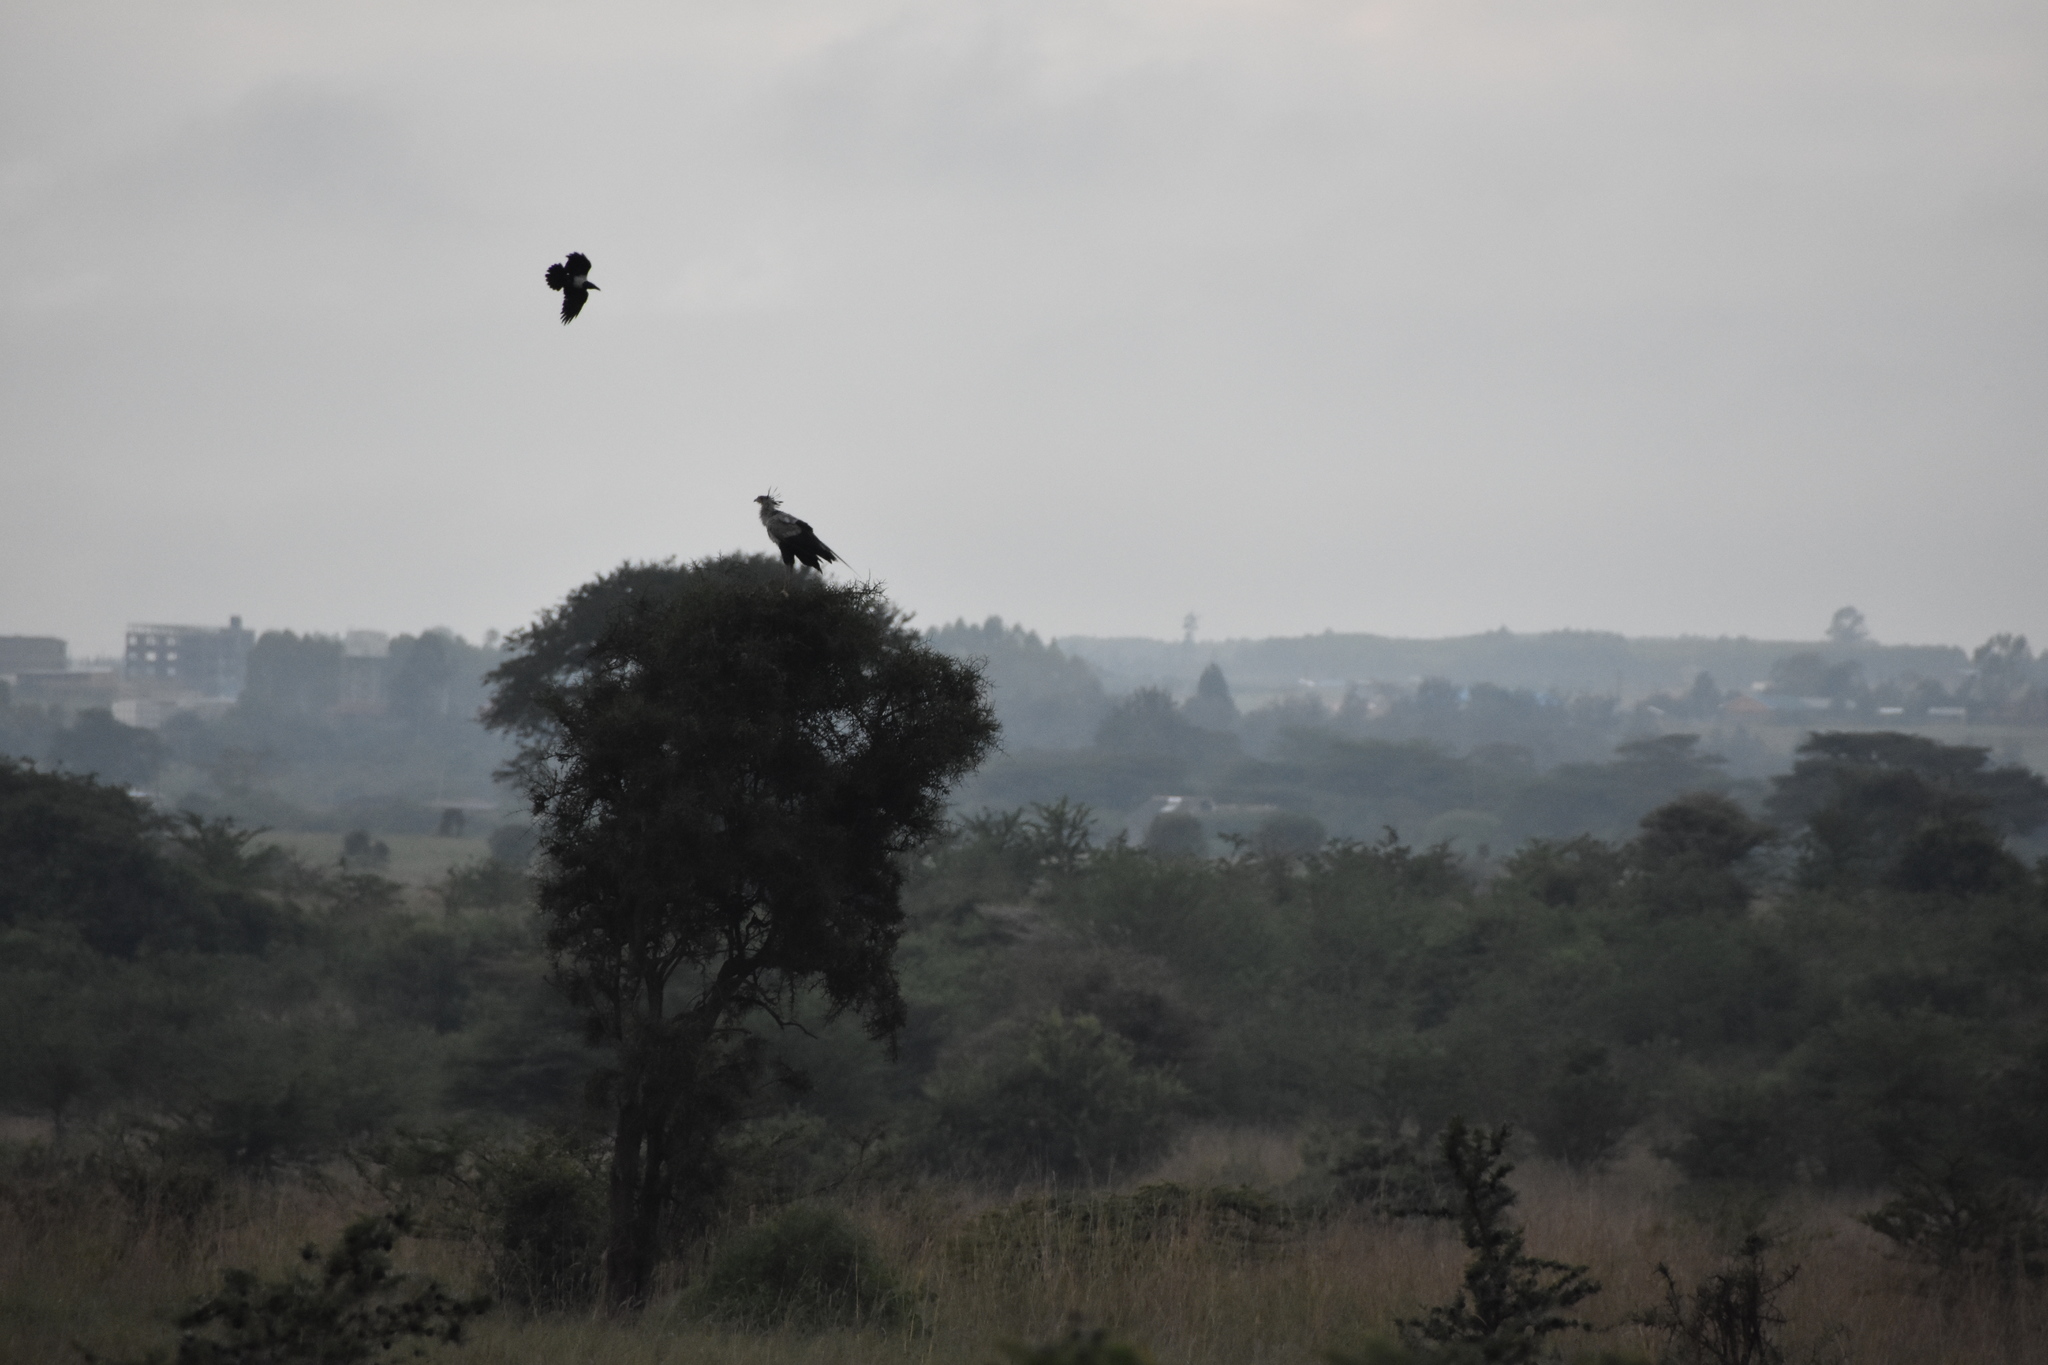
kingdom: Animalia
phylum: Chordata
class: Aves
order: Passeriformes
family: Corvidae
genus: Corvus
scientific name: Corvus albus
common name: Pied crow
